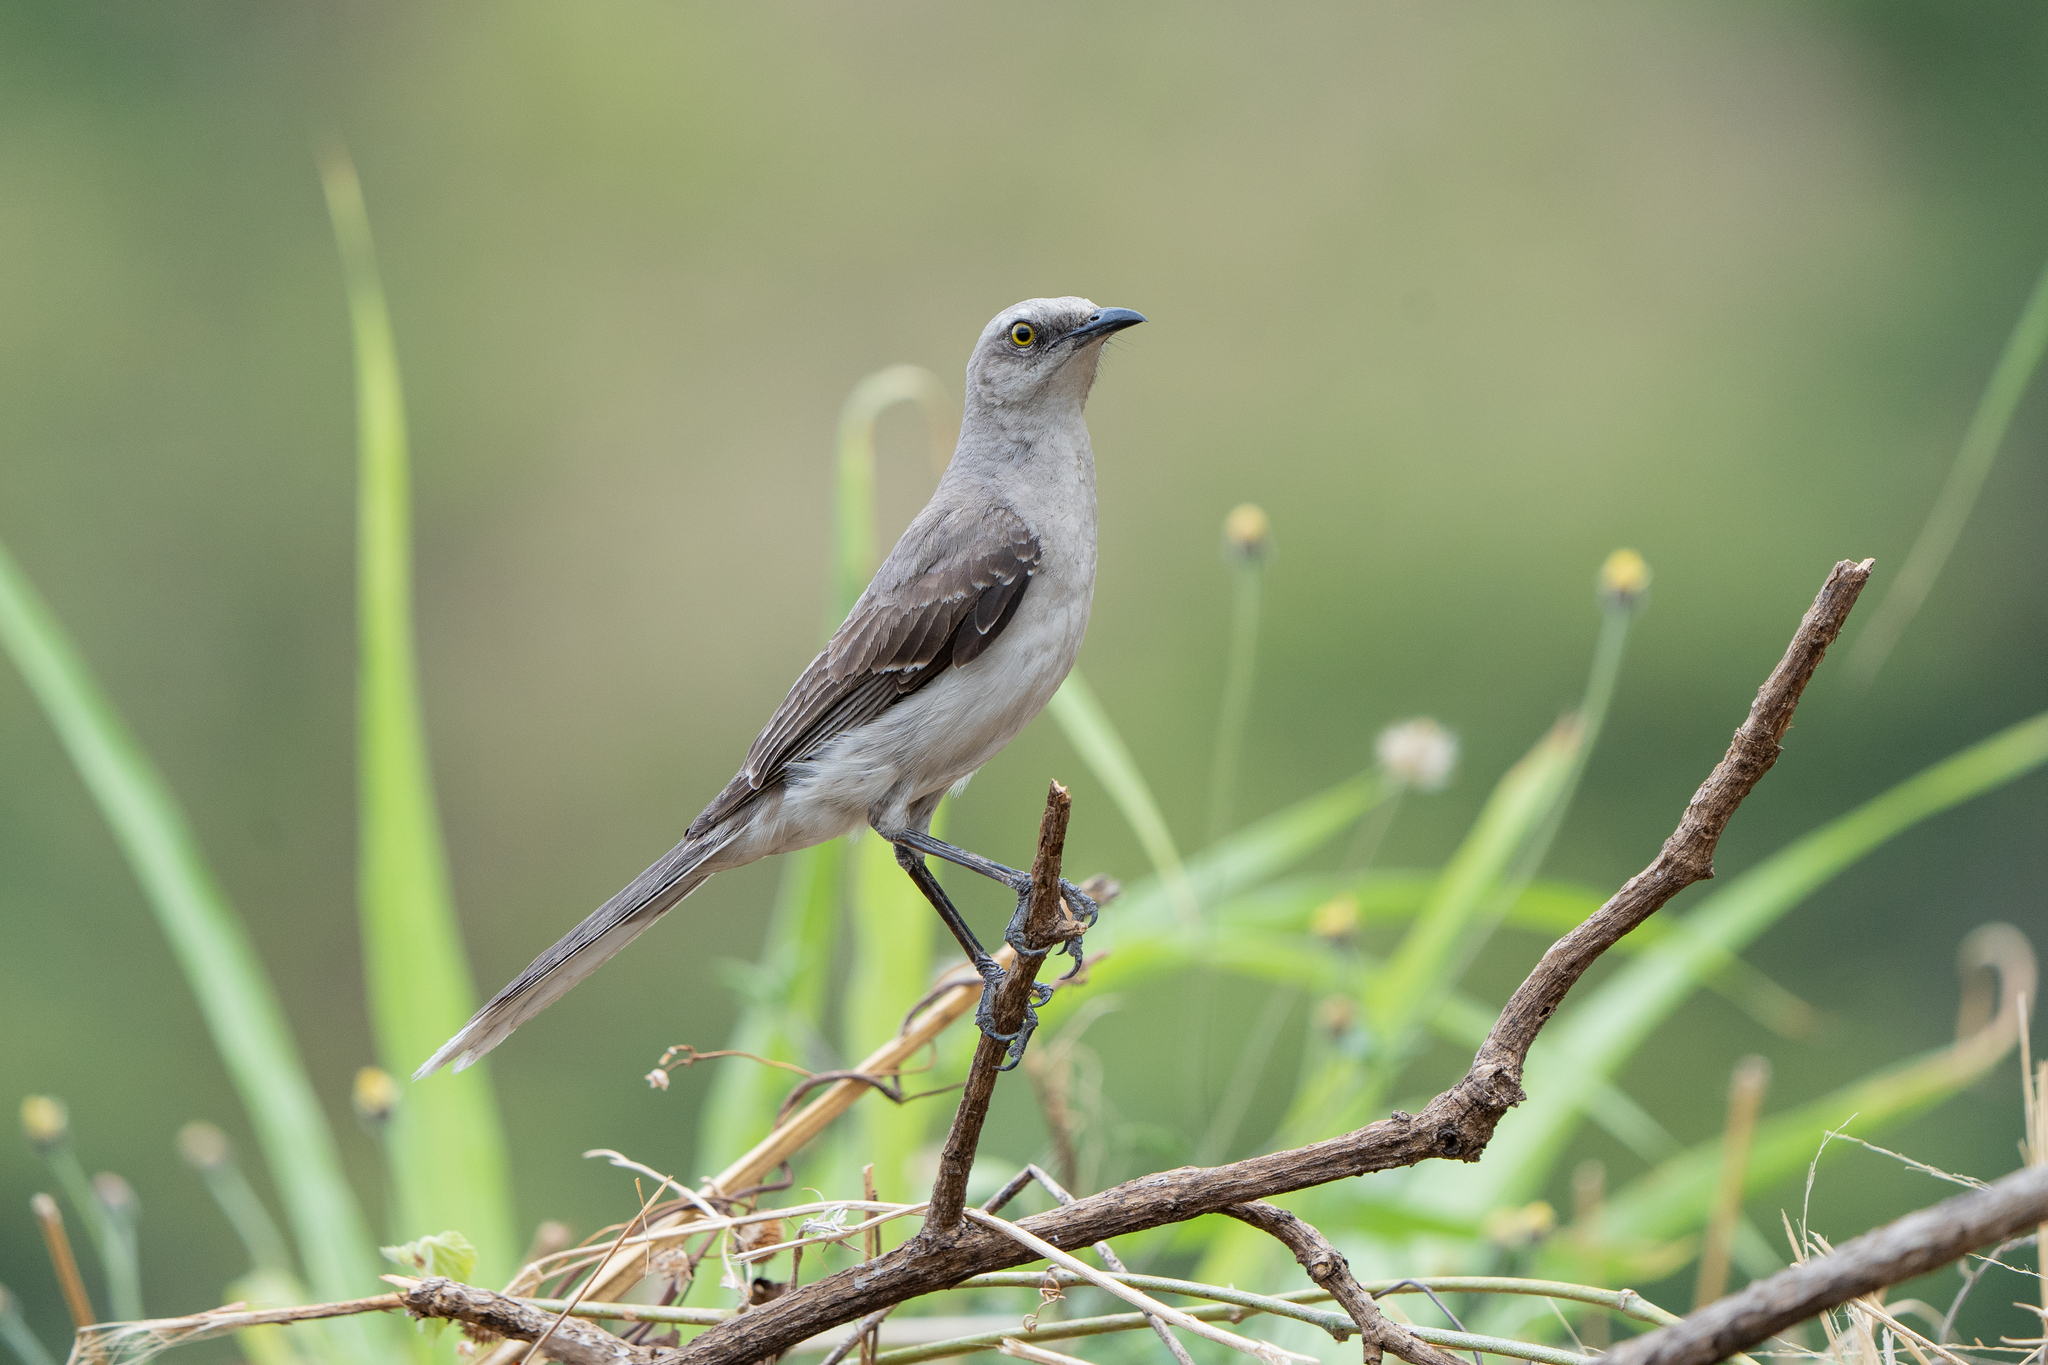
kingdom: Animalia
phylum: Chordata
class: Aves
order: Passeriformes
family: Mimidae
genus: Mimus
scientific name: Mimus gilvus
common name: Tropical mockingbird
